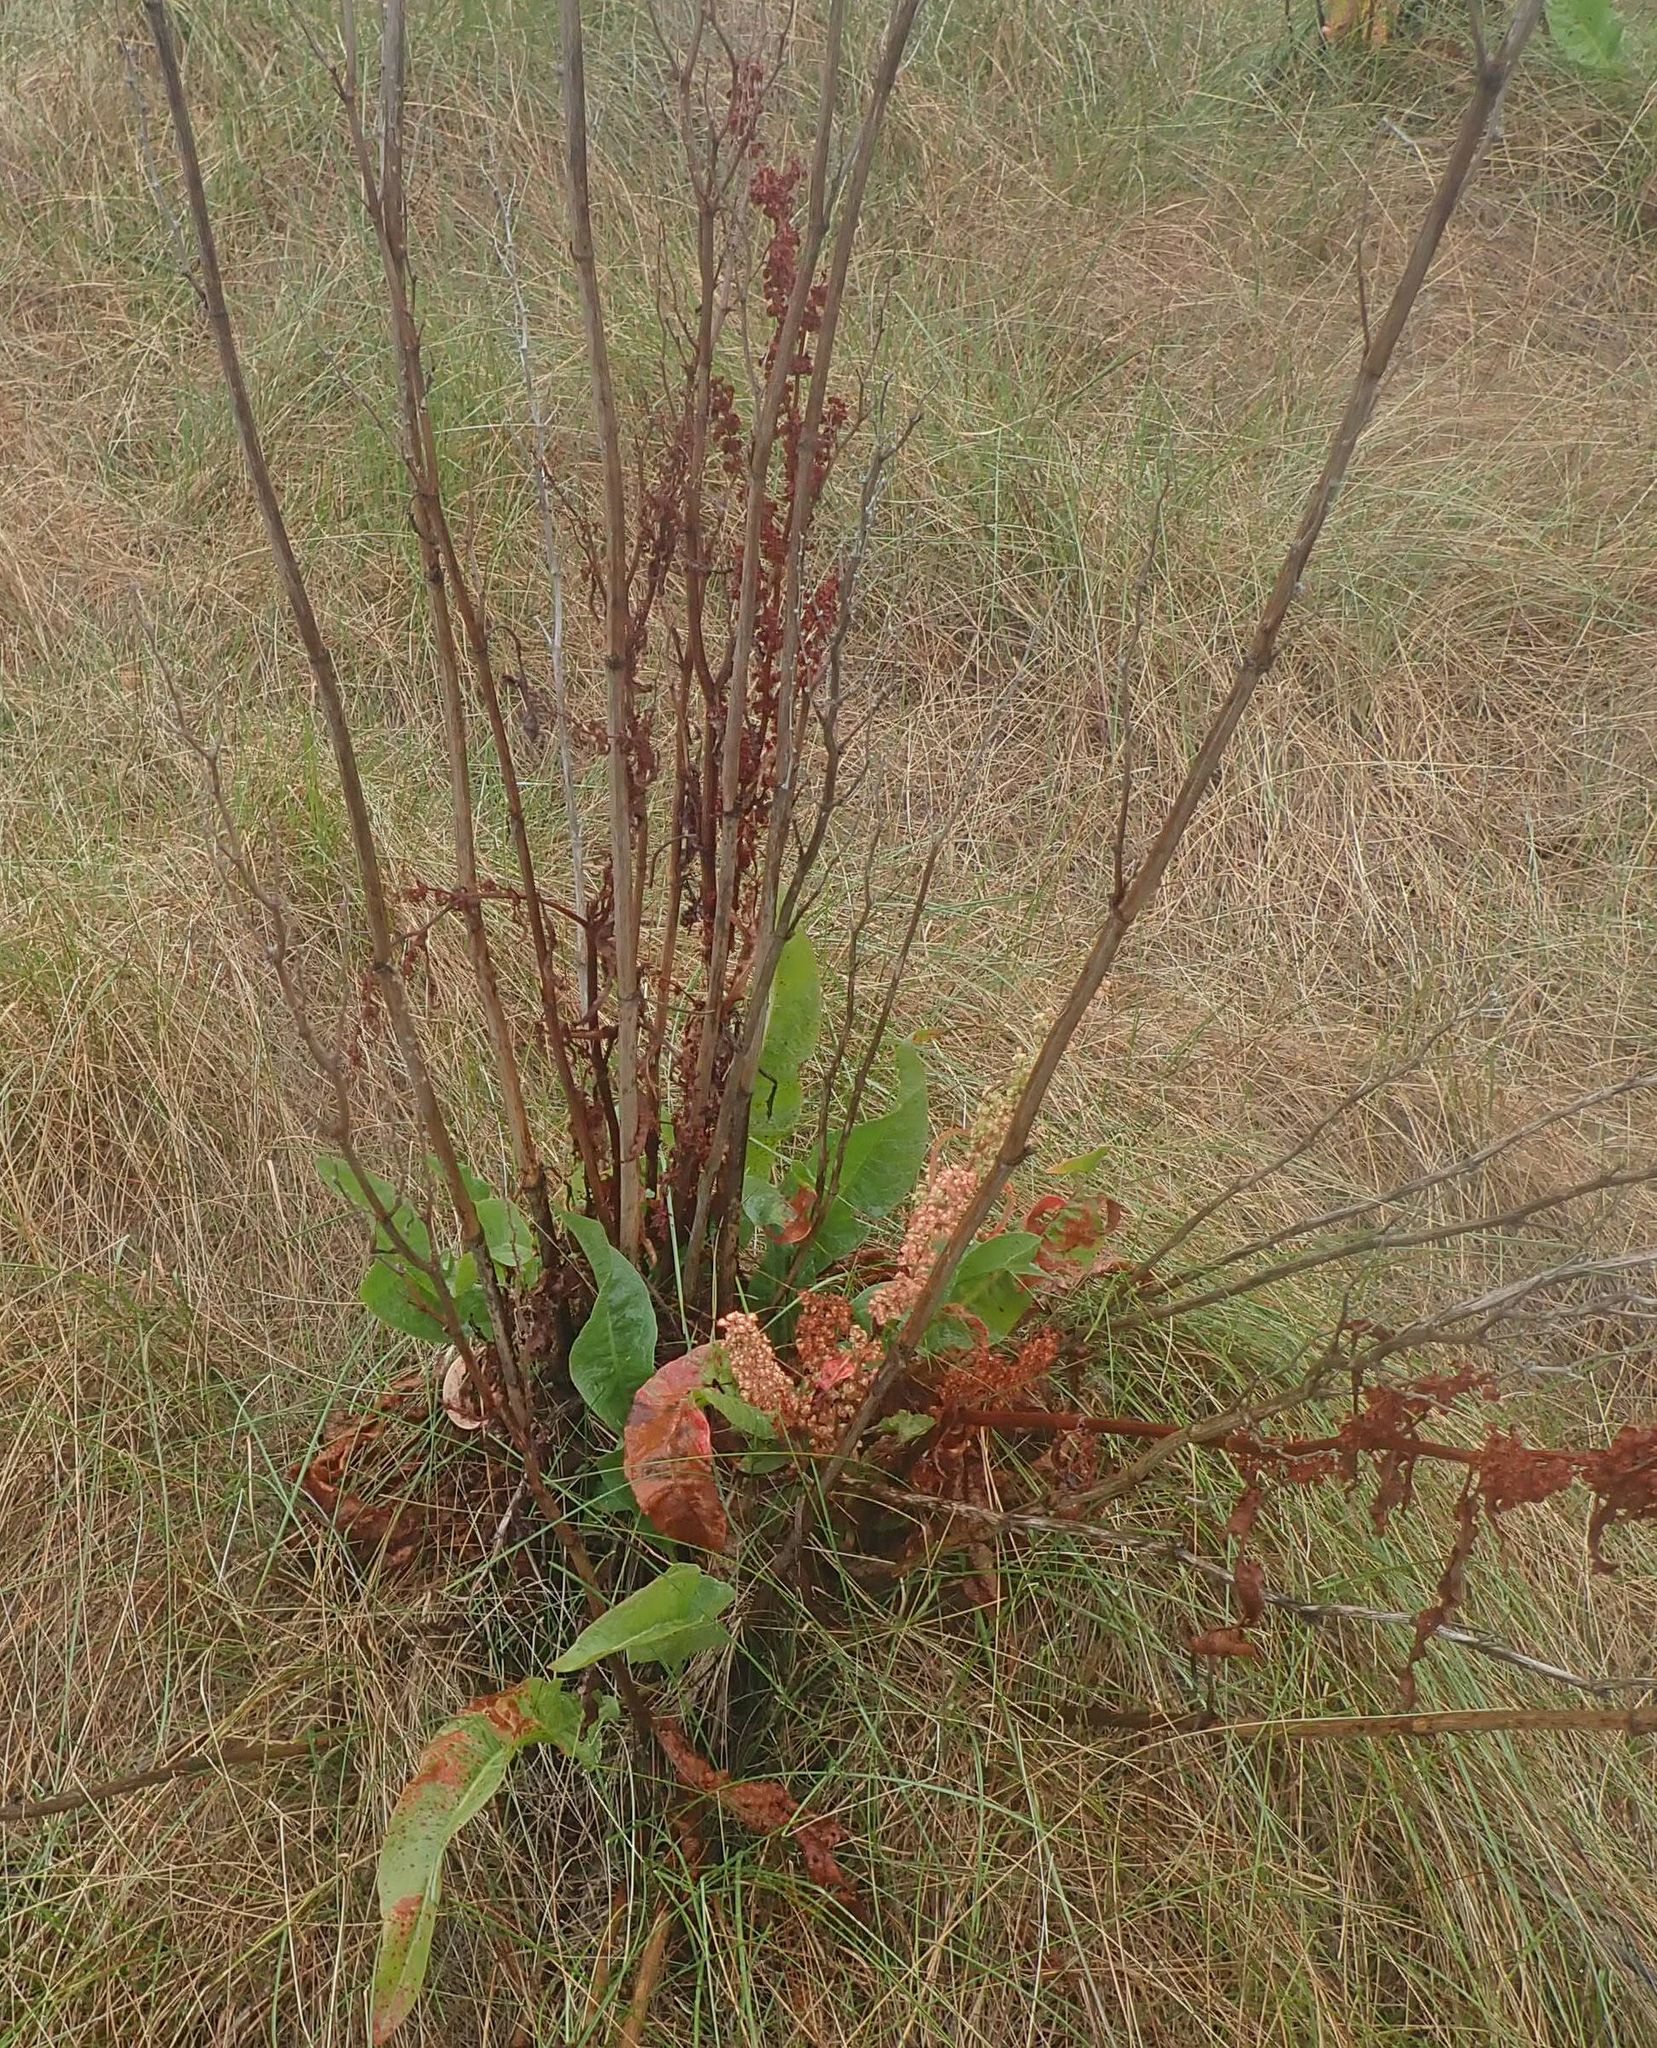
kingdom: Plantae
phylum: Tracheophyta
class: Magnoliopsida
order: Caryophyllales
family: Polygonaceae
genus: Rumex
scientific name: Rumex crispus
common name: Curled dock
